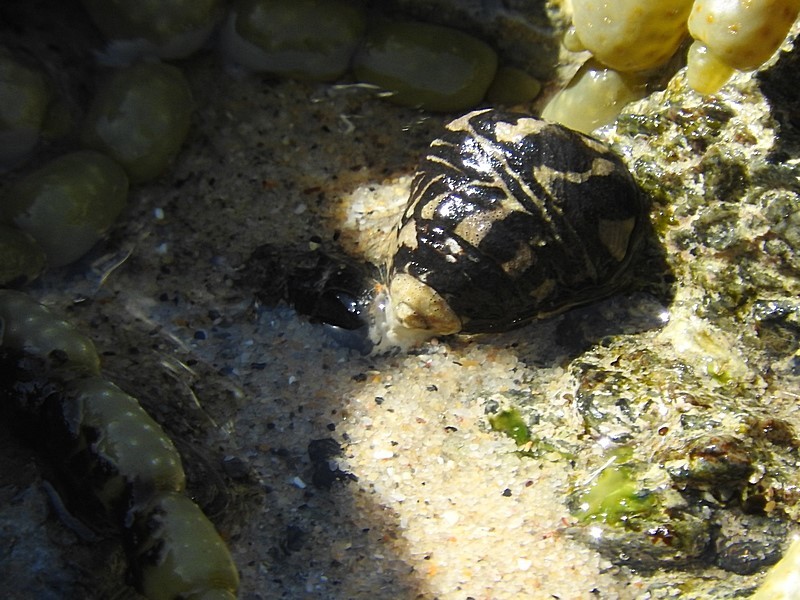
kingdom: Animalia
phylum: Mollusca
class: Gastropoda
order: Trochida
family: Trochidae
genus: Austrocochlea
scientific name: Austrocochlea porcata
